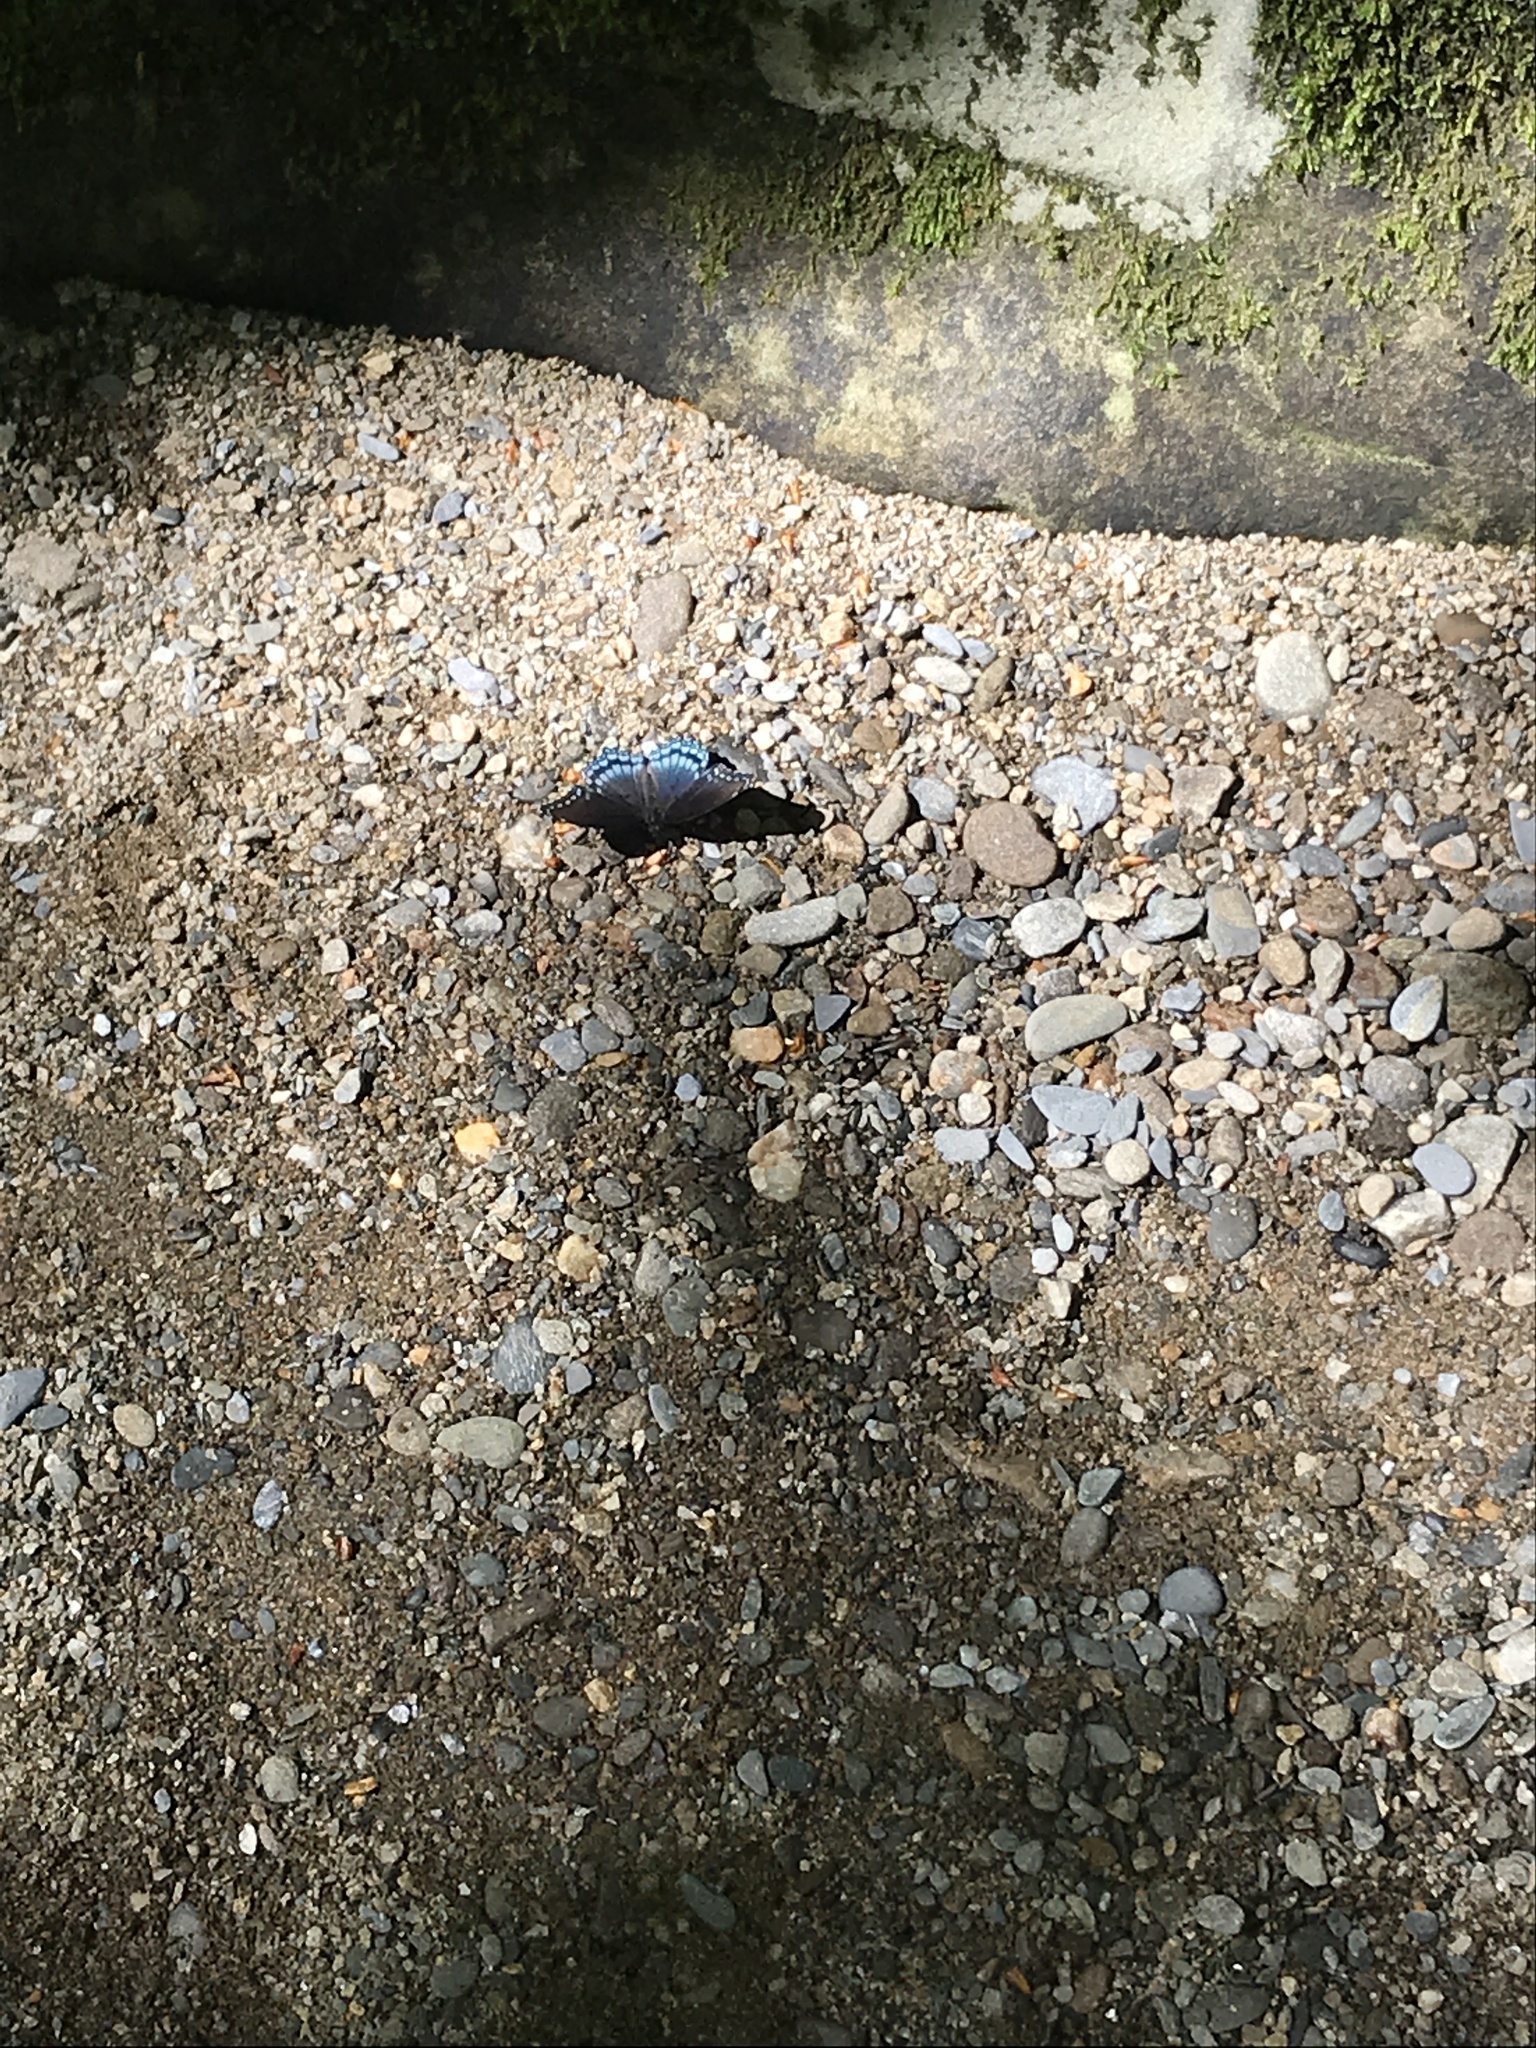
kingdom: Animalia
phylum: Arthropoda
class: Insecta
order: Lepidoptera
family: Nymphalidae
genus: Limenitis
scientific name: Limenitis astyanax
